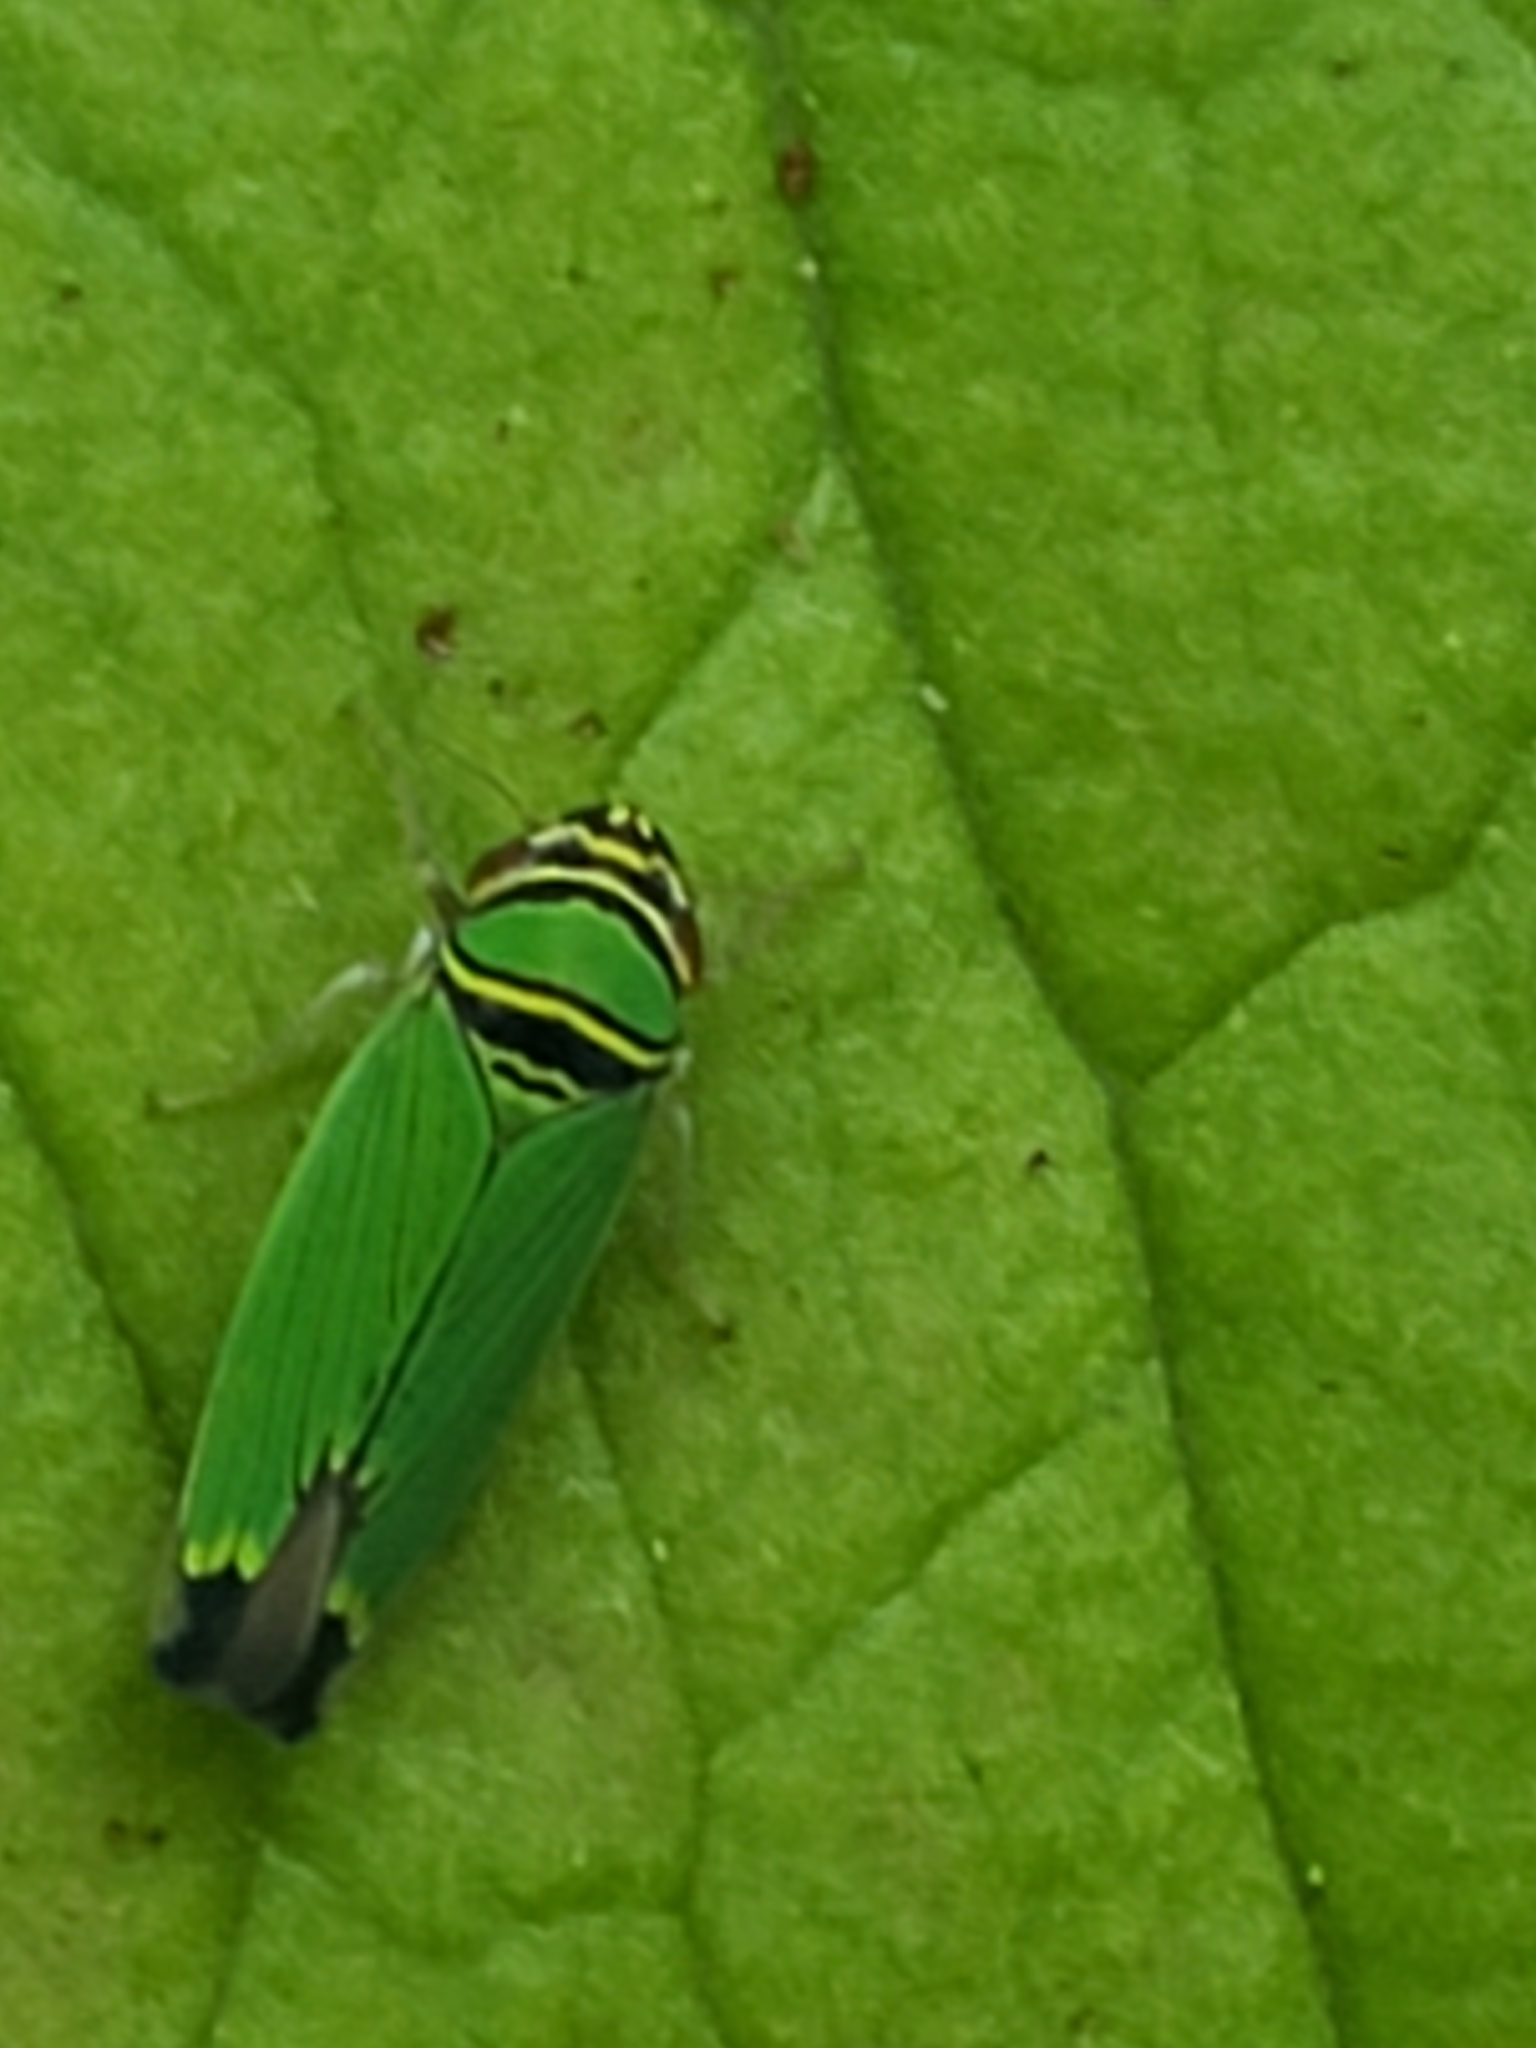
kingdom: Animalia
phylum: Arthropoda
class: Insecta
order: Hemiptera
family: Cicadellidae
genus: Tylozygus
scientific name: Tylozygus geometricus
